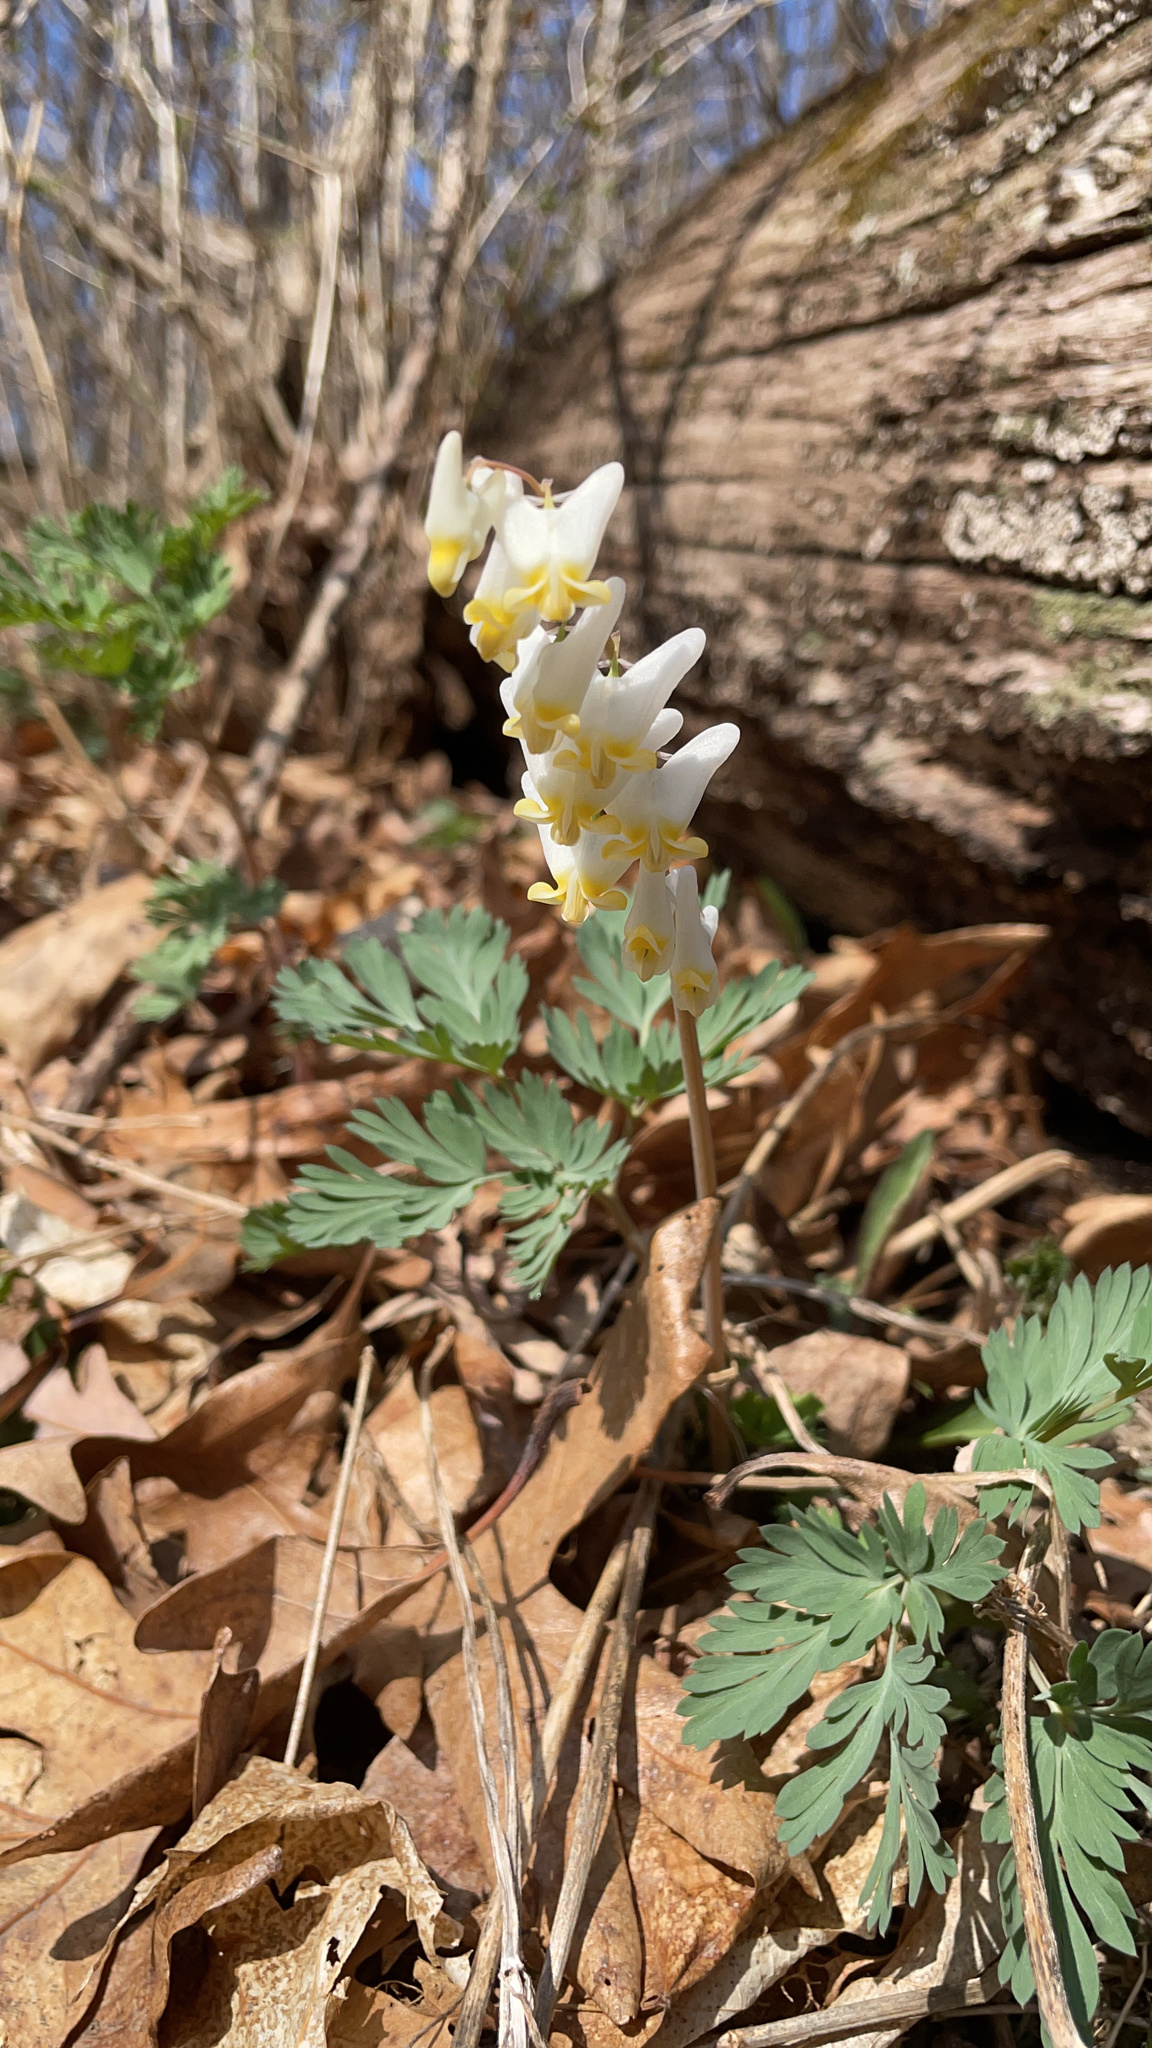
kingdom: Plantae
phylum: Tracheophyta
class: Magnoliopsida
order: Ranunculales
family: Papaveraceae
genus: Dicentra
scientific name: Dicentra cucullaria
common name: Dutchman's breeches
